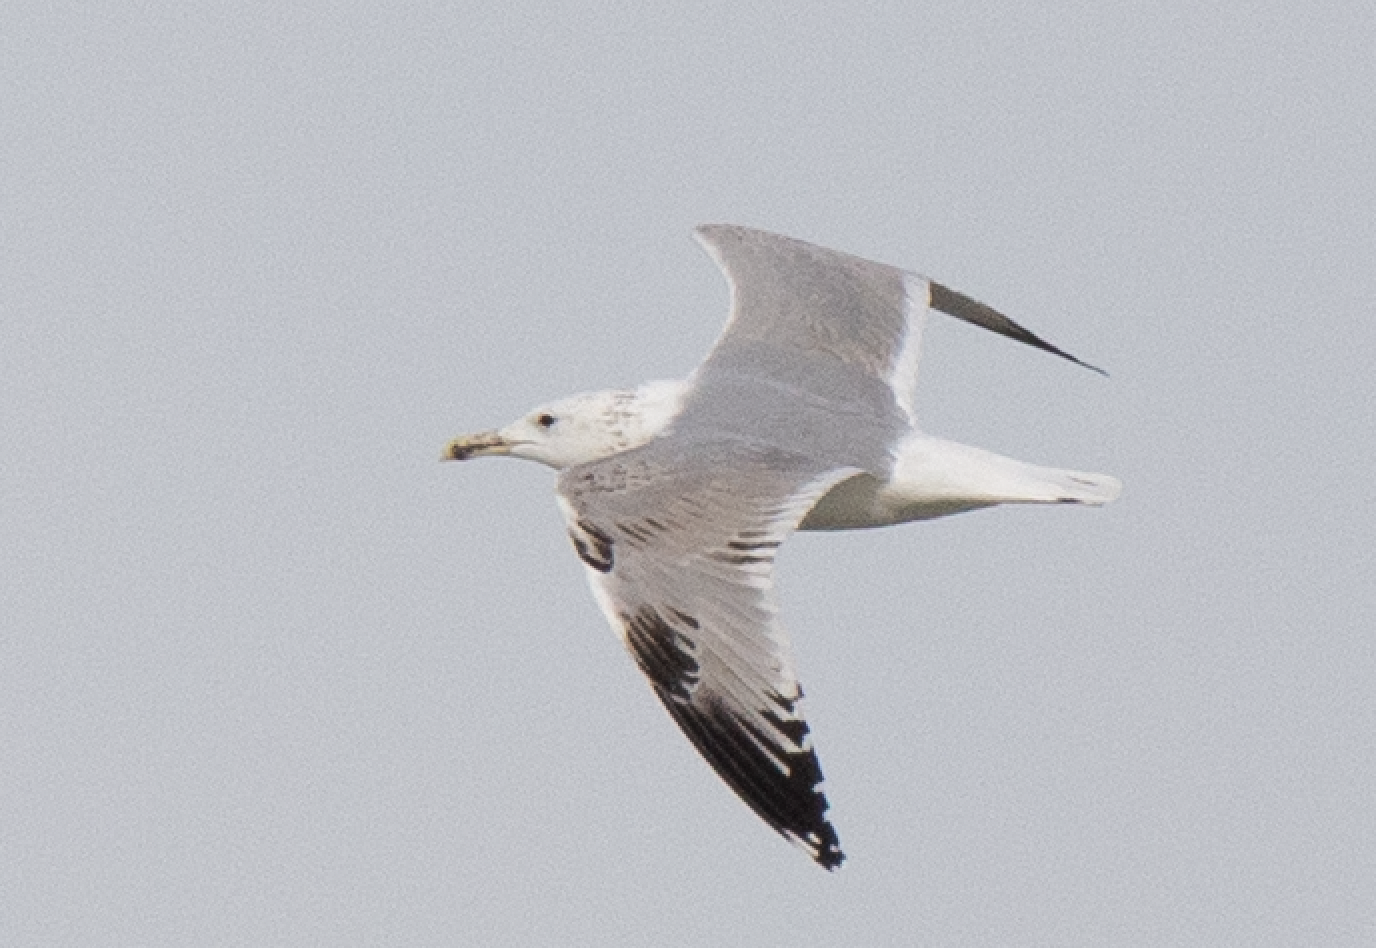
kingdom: Animalia
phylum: Chordata
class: Aves
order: Charadriiformes
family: Laridae
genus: Larus
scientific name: Larus cachinnans
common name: Caspian gull
